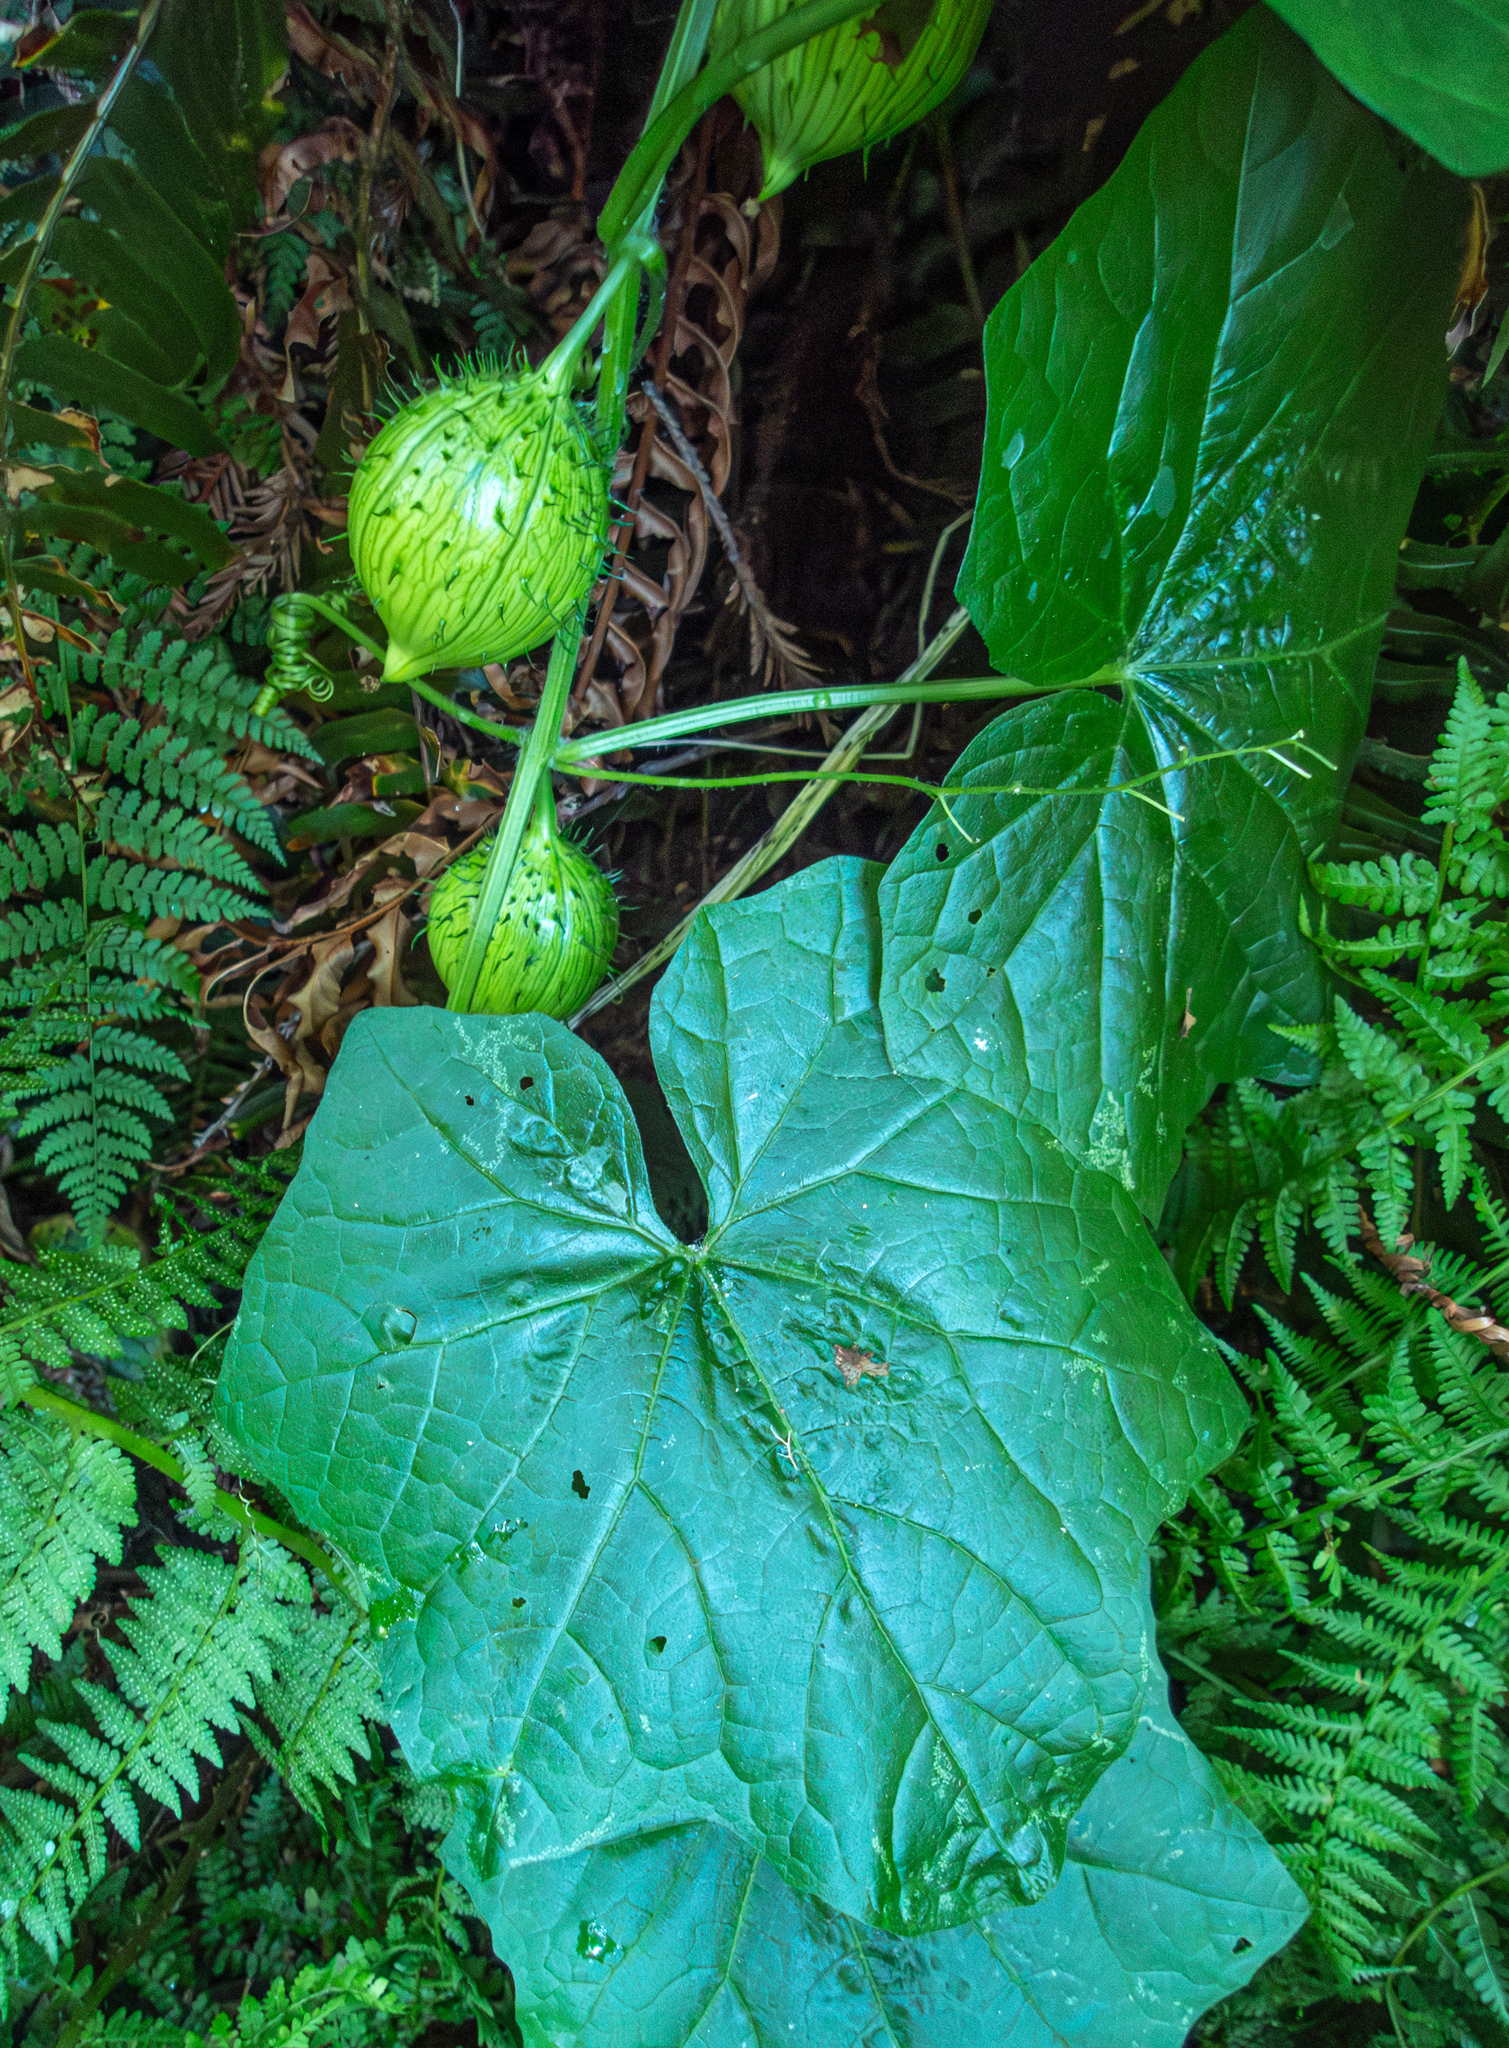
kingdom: Plantae
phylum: Tracheophyta
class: Magnoliopsida
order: Cucurbitales
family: Cucurbitaceae
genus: Marah
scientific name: Marah oregana
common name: Coastal manroot
